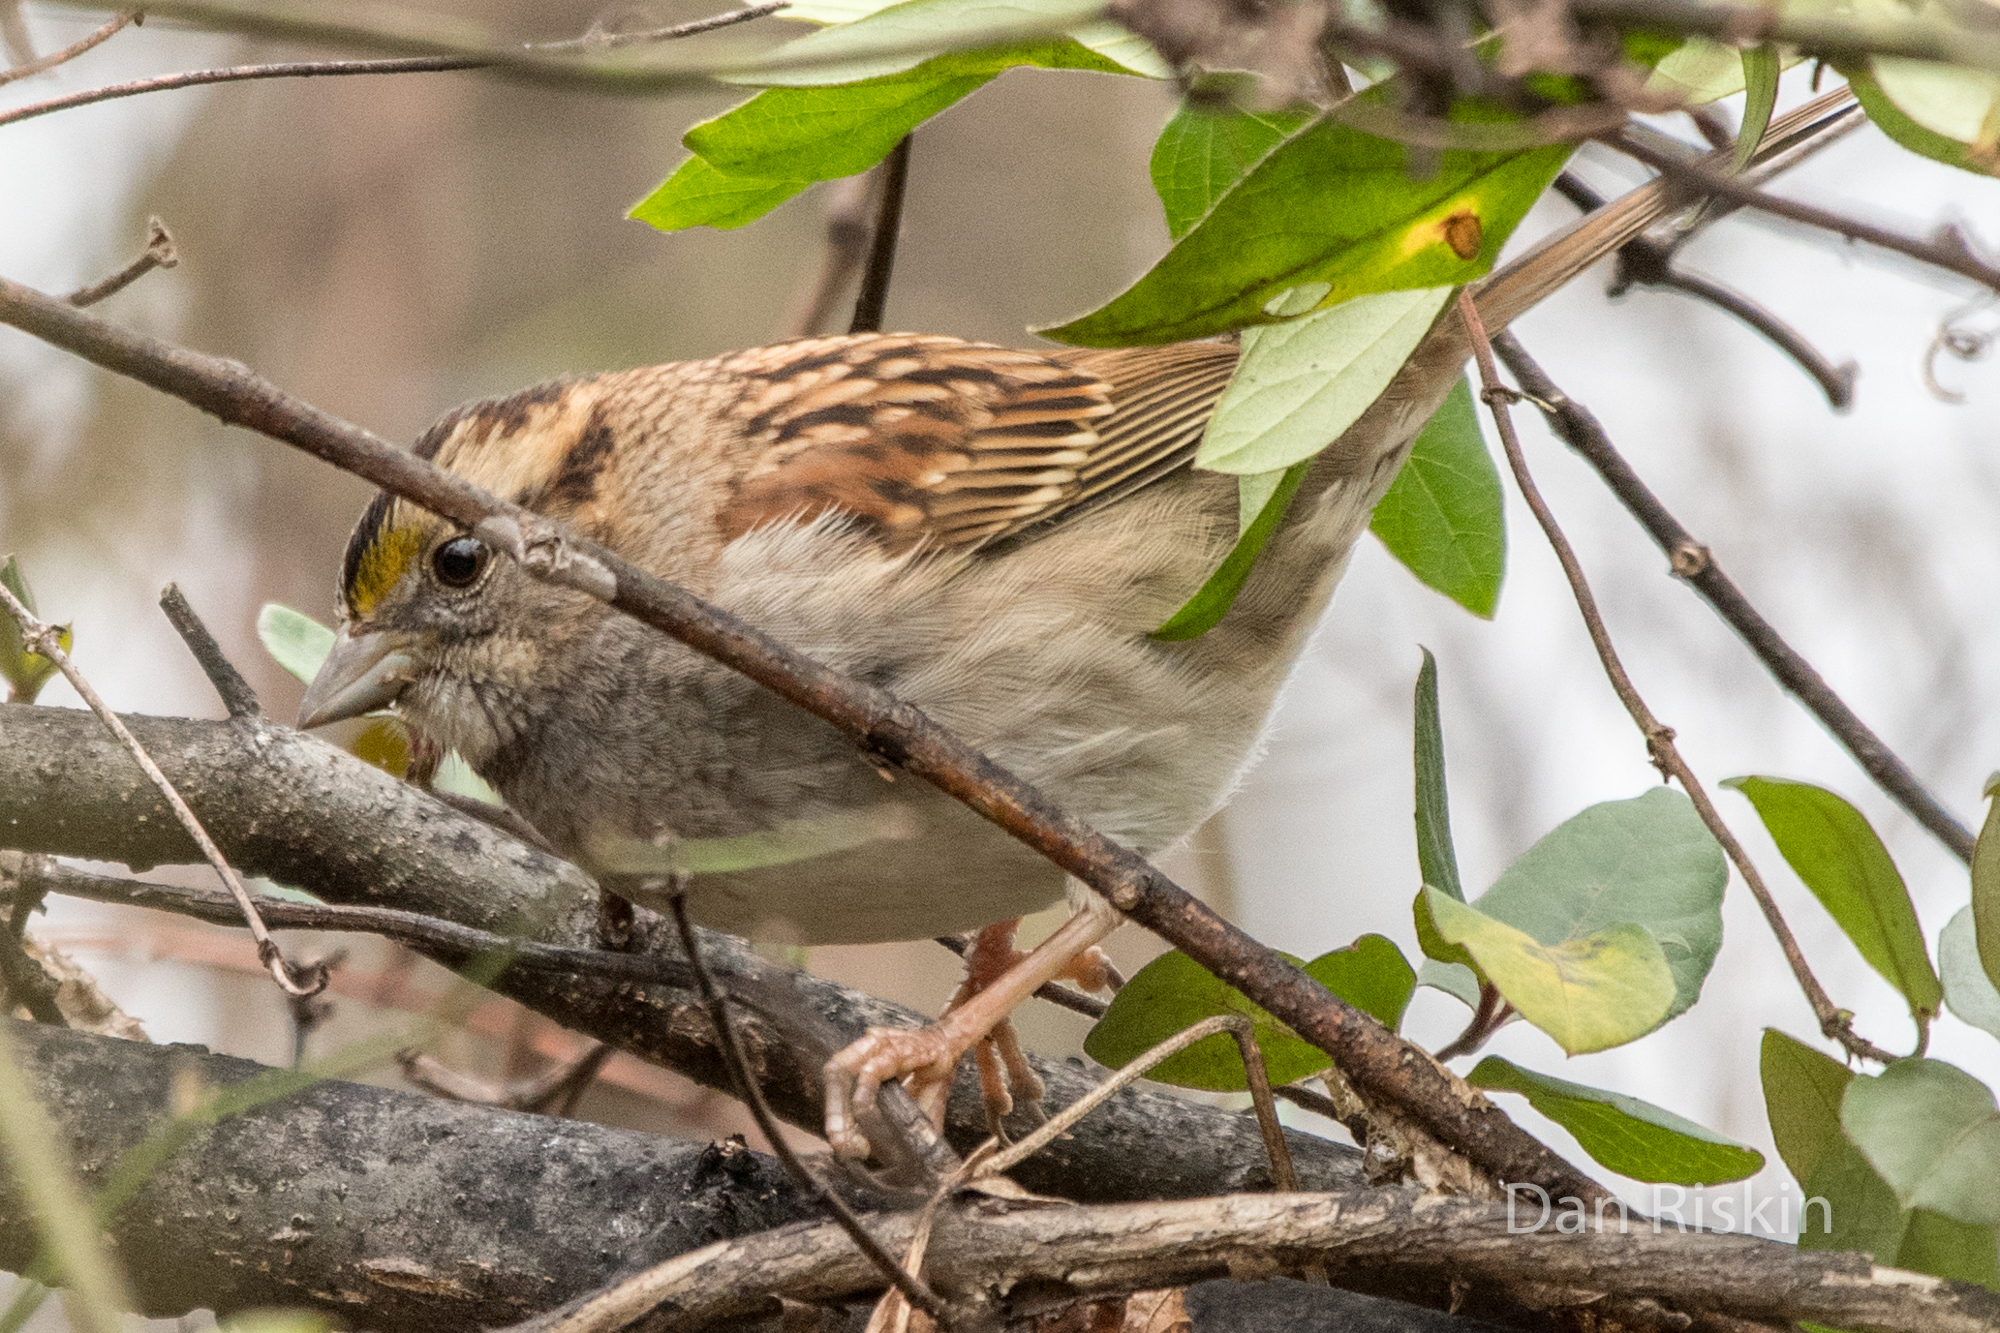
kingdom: Animalia
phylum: Chordata
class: Aves
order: Passeriformes
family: Passerellidae
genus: Zonotrichia
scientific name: Zonotrichia albicollis
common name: White-throated sparrow
